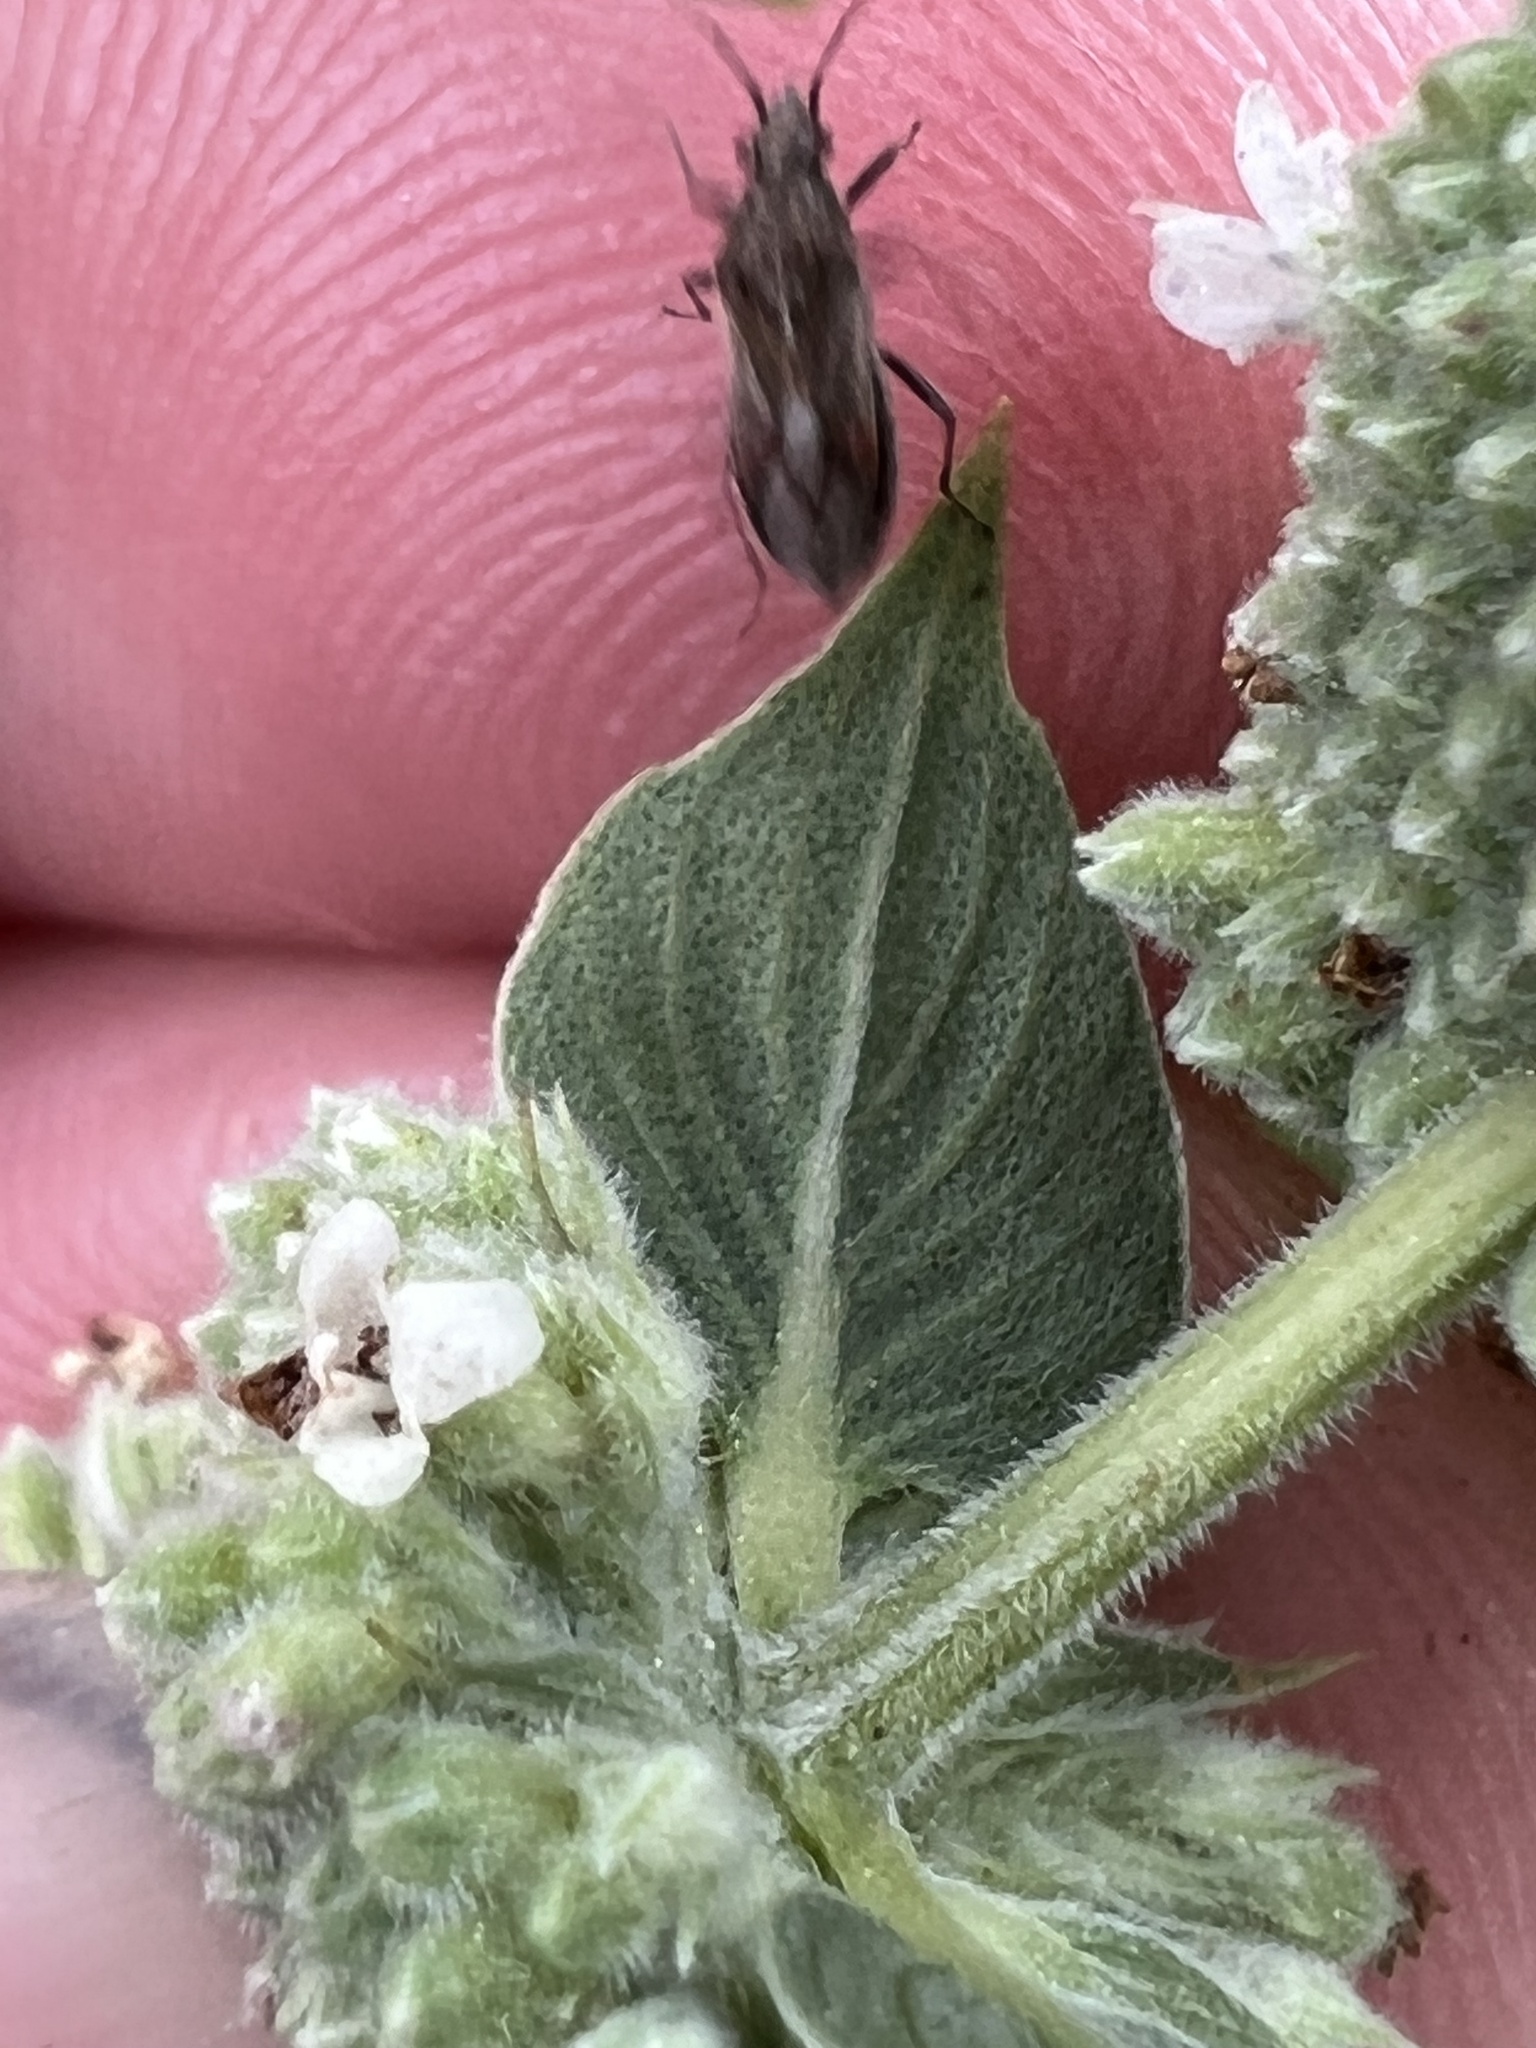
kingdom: Animalia
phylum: Arthropoda
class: Insecta
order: Hemiptera
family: Lygaeidae
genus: Neortholomus
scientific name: Neortholomus scolopax
